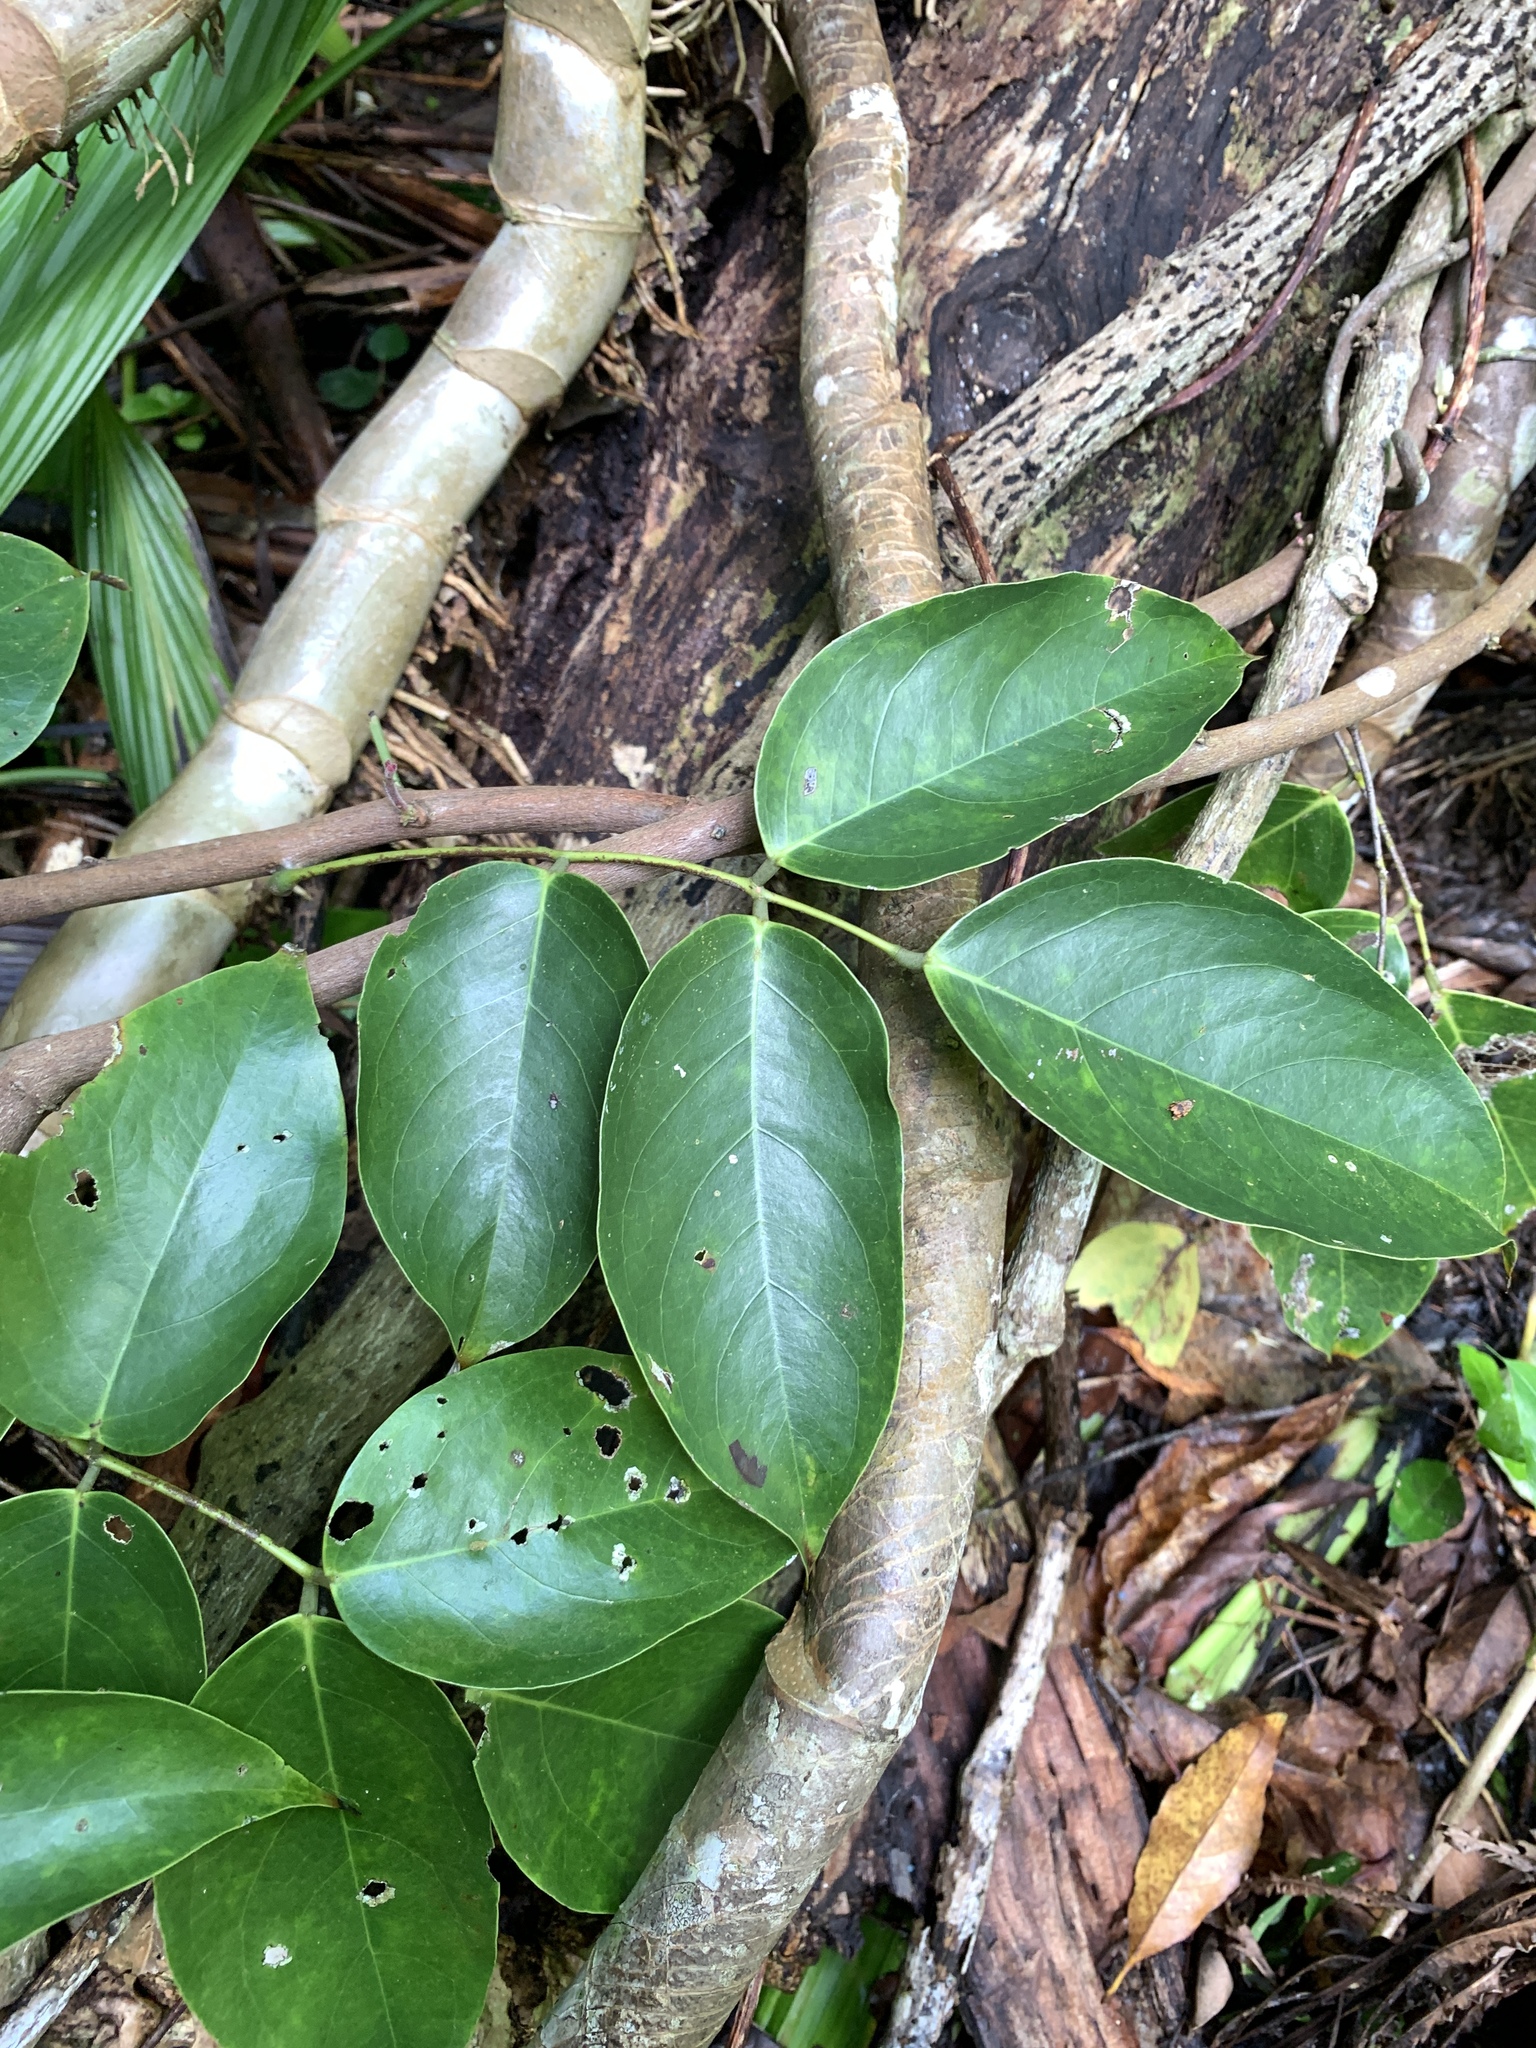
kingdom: Plantae
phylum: Tracheophyta
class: Magnoliopsida
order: Oxalidales
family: Connaraceae
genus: Rourea
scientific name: Rourea minor
